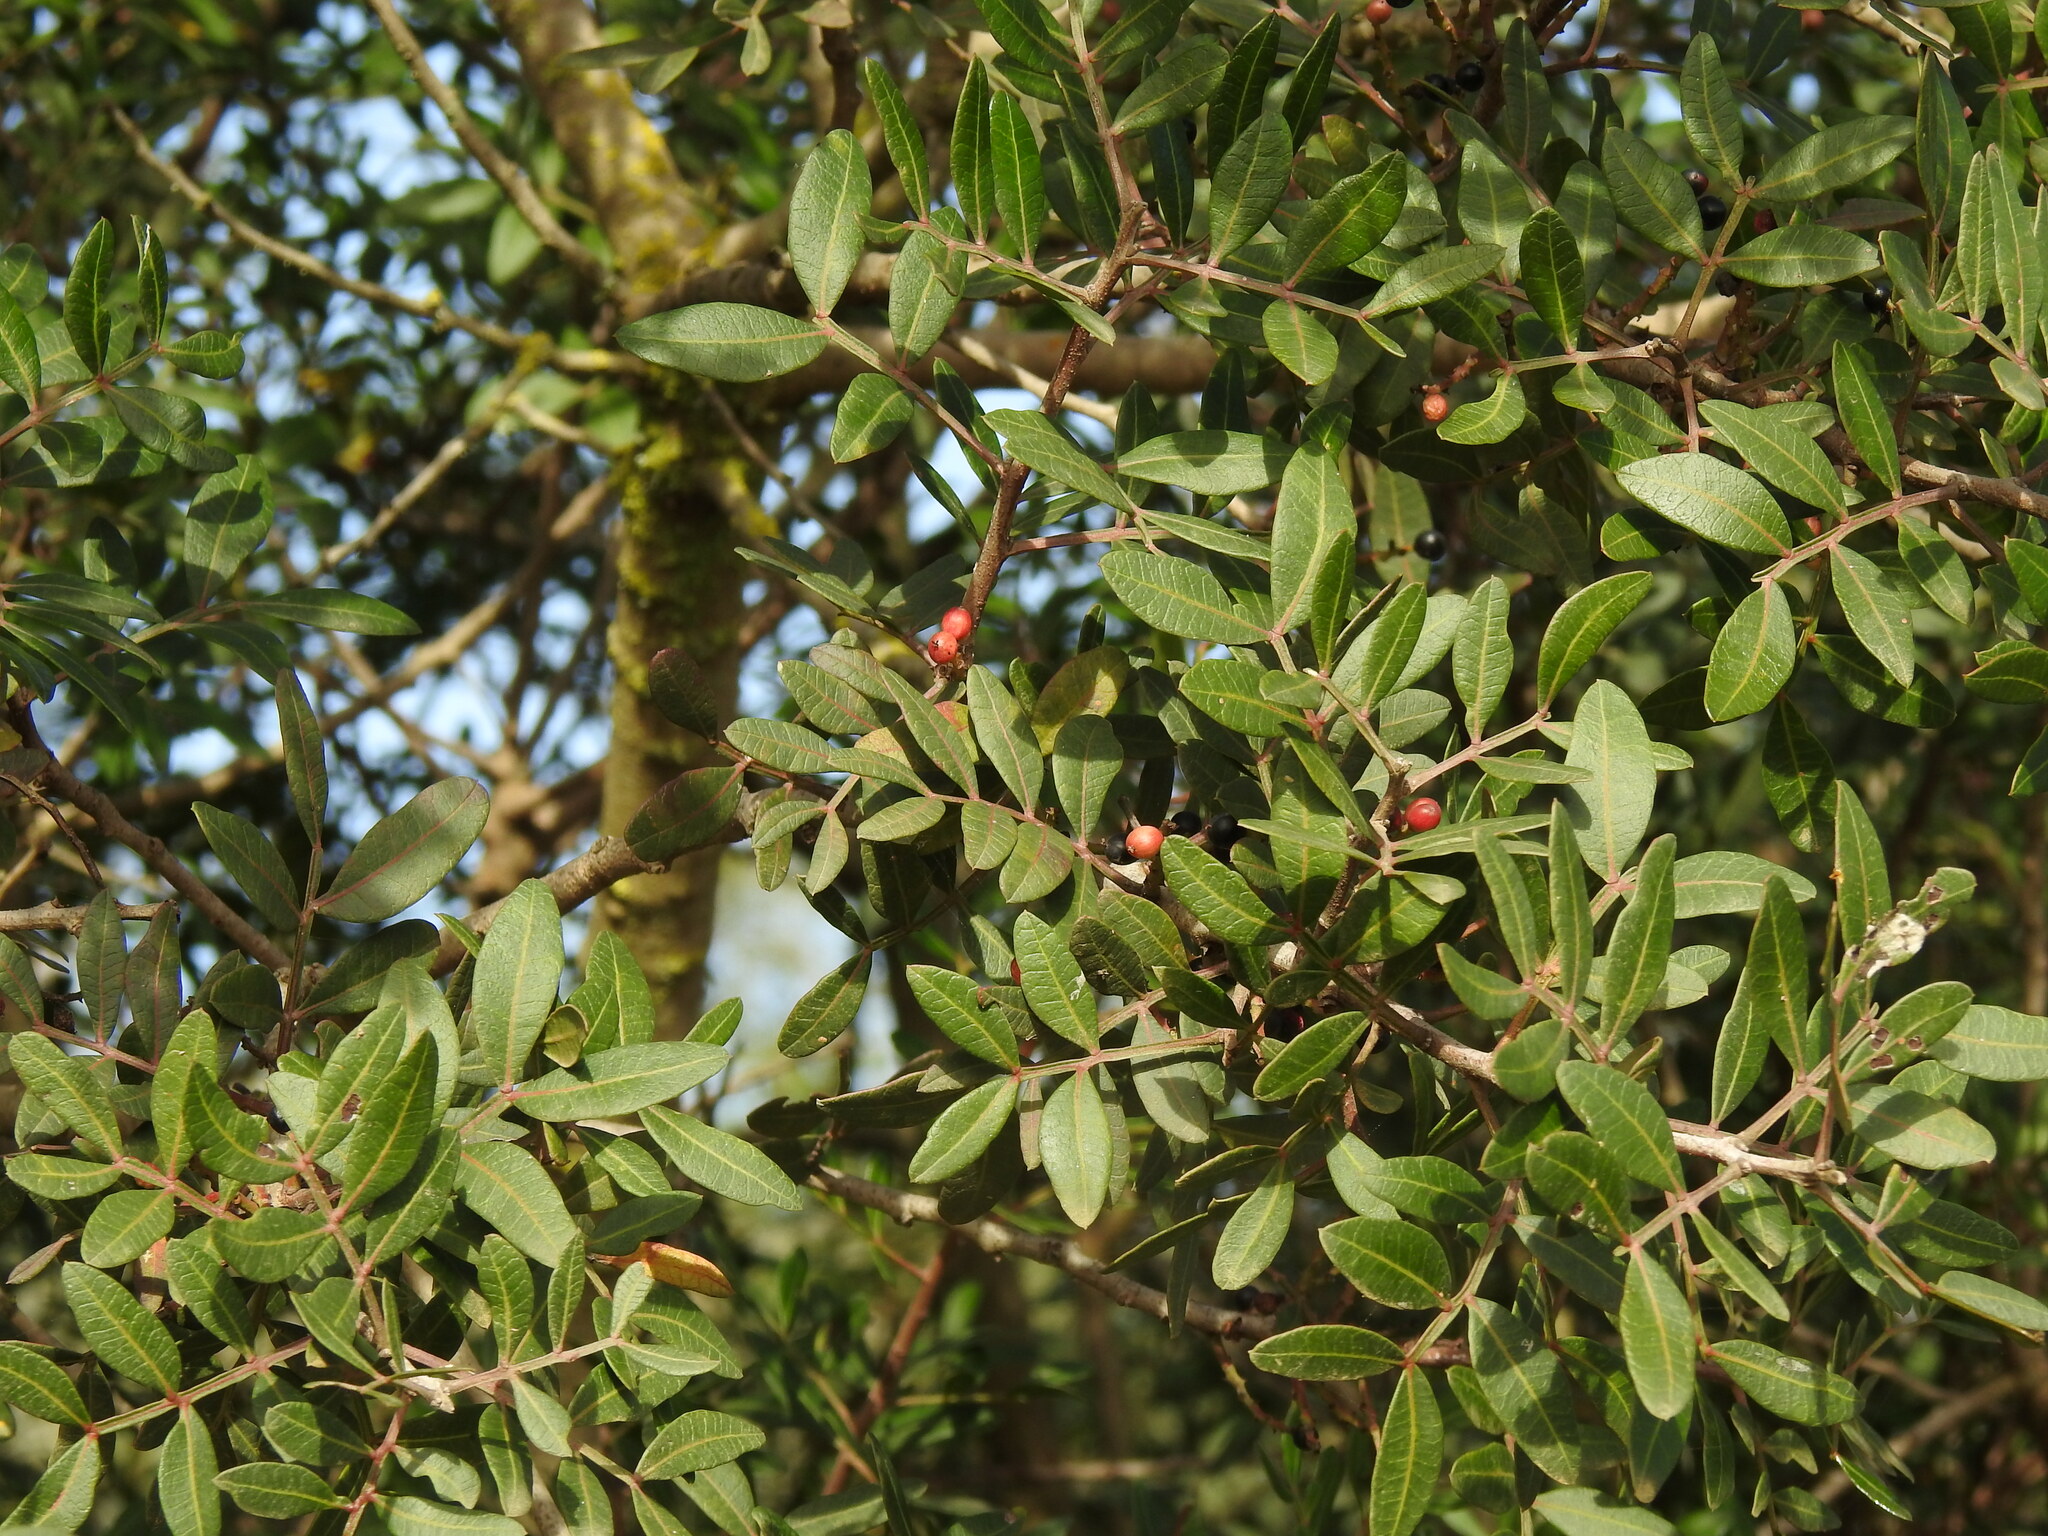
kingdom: Plantae
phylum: Tracheophyta
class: Magnoliopsida
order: Sapindales
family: Anacardiaceae
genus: Pistacia
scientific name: Pistacia lentiscus
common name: Lentisk
